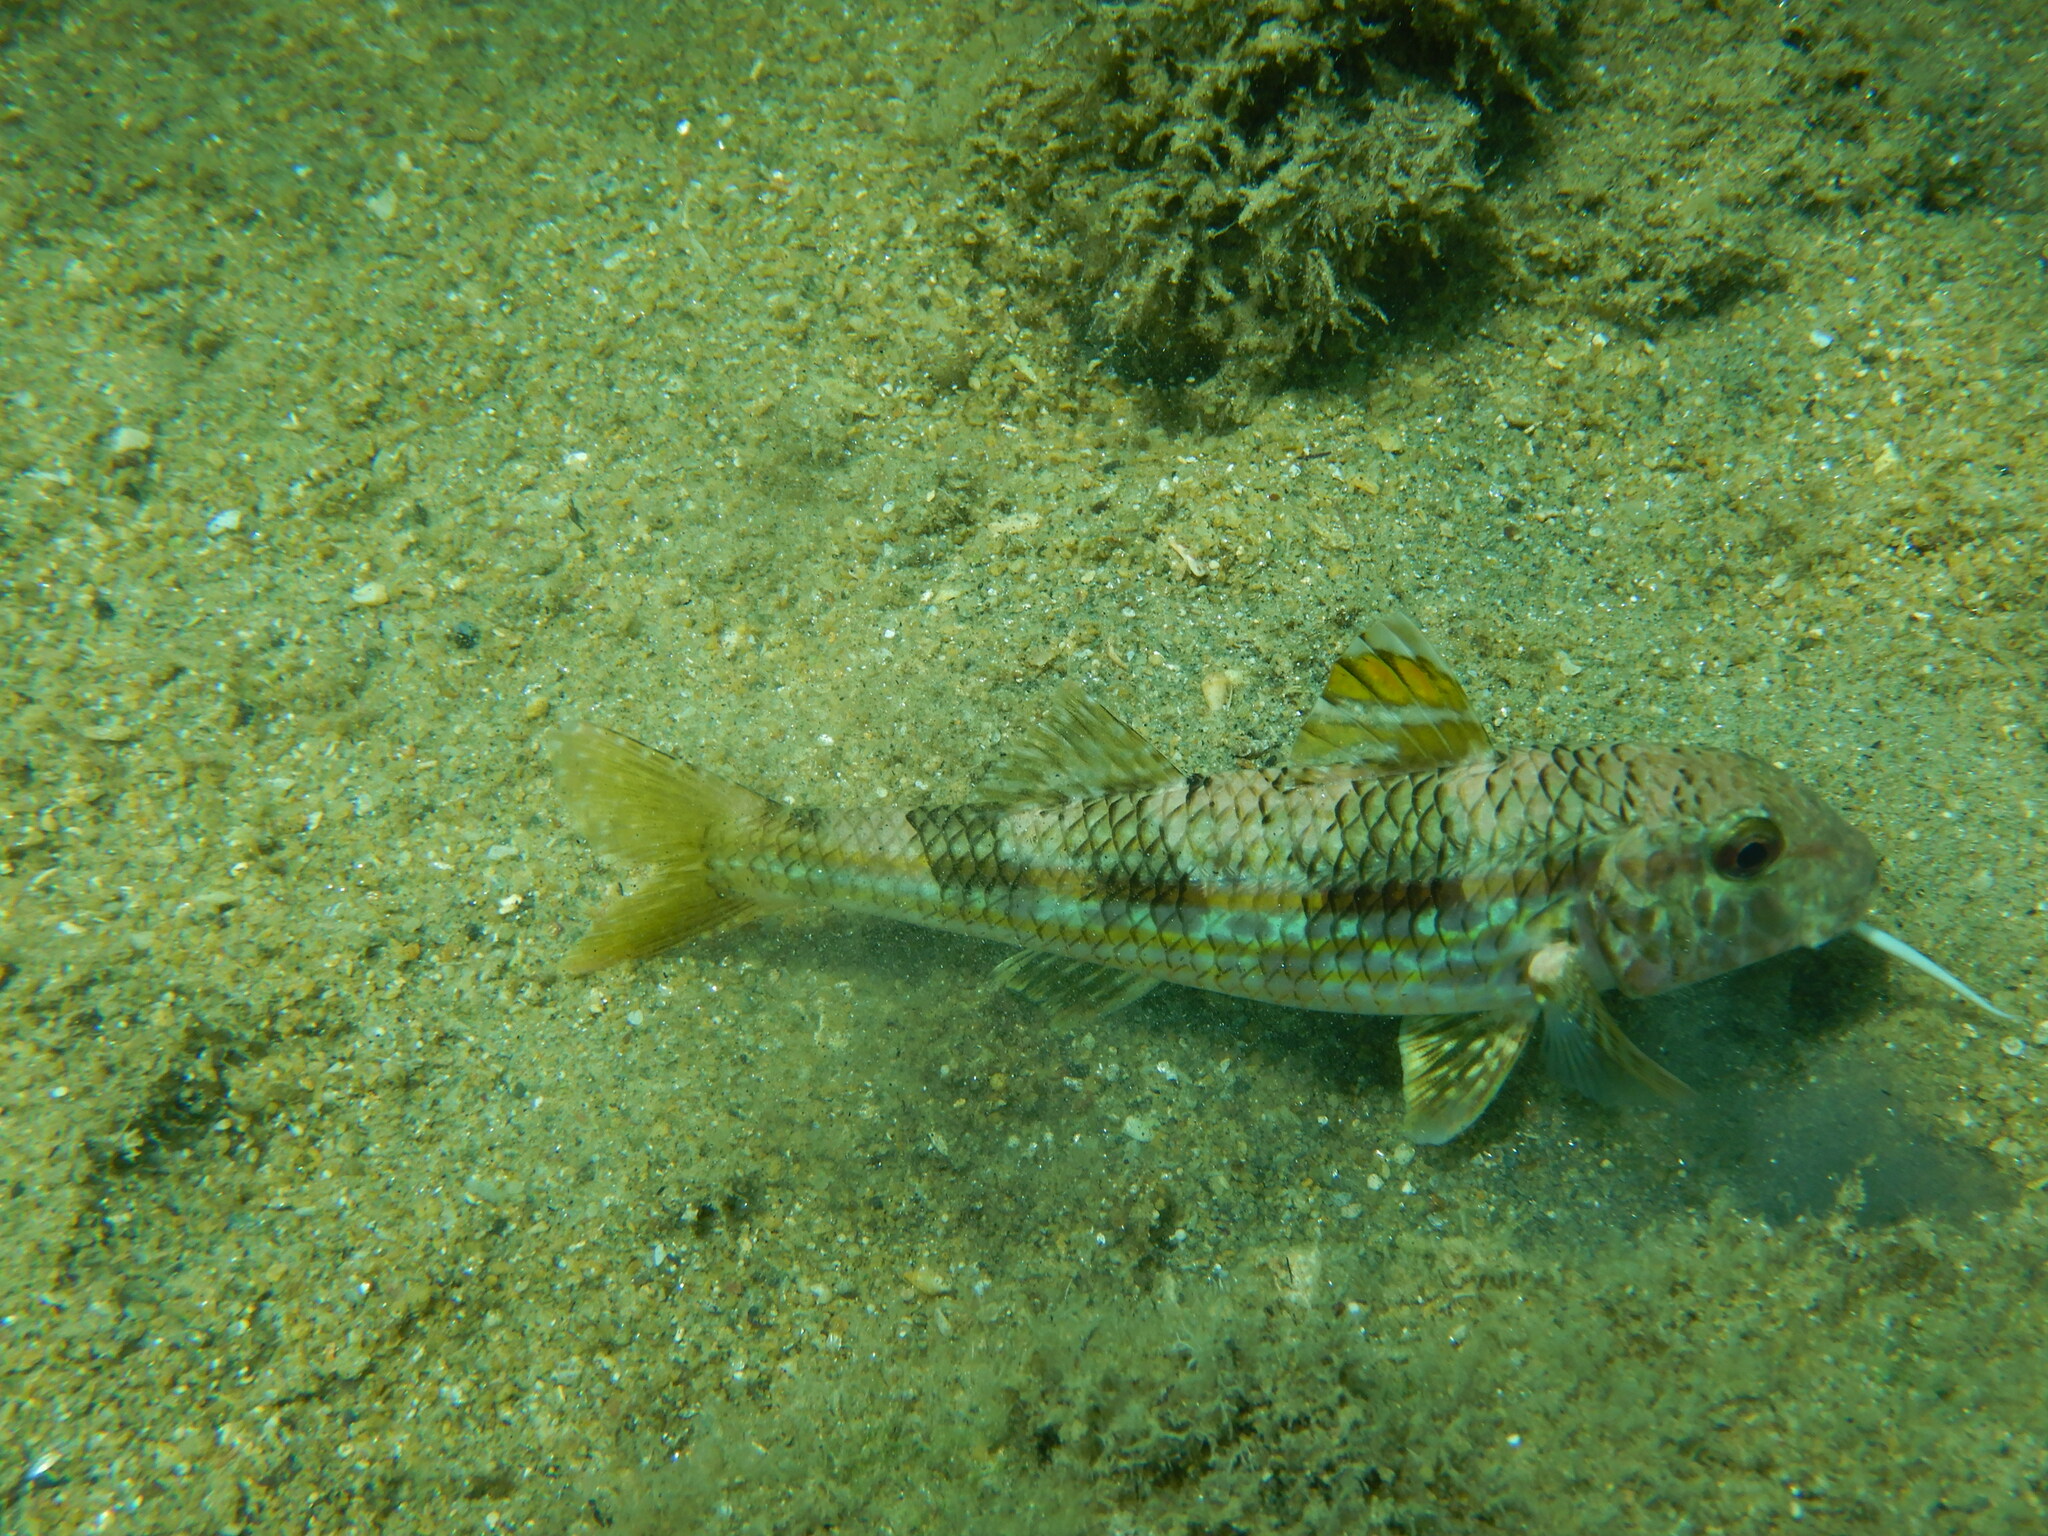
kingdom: Animalia
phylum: Chordata
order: Perciformes
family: Mullidae
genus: Mullus
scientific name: Mullus surmuletus
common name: Red mullet
